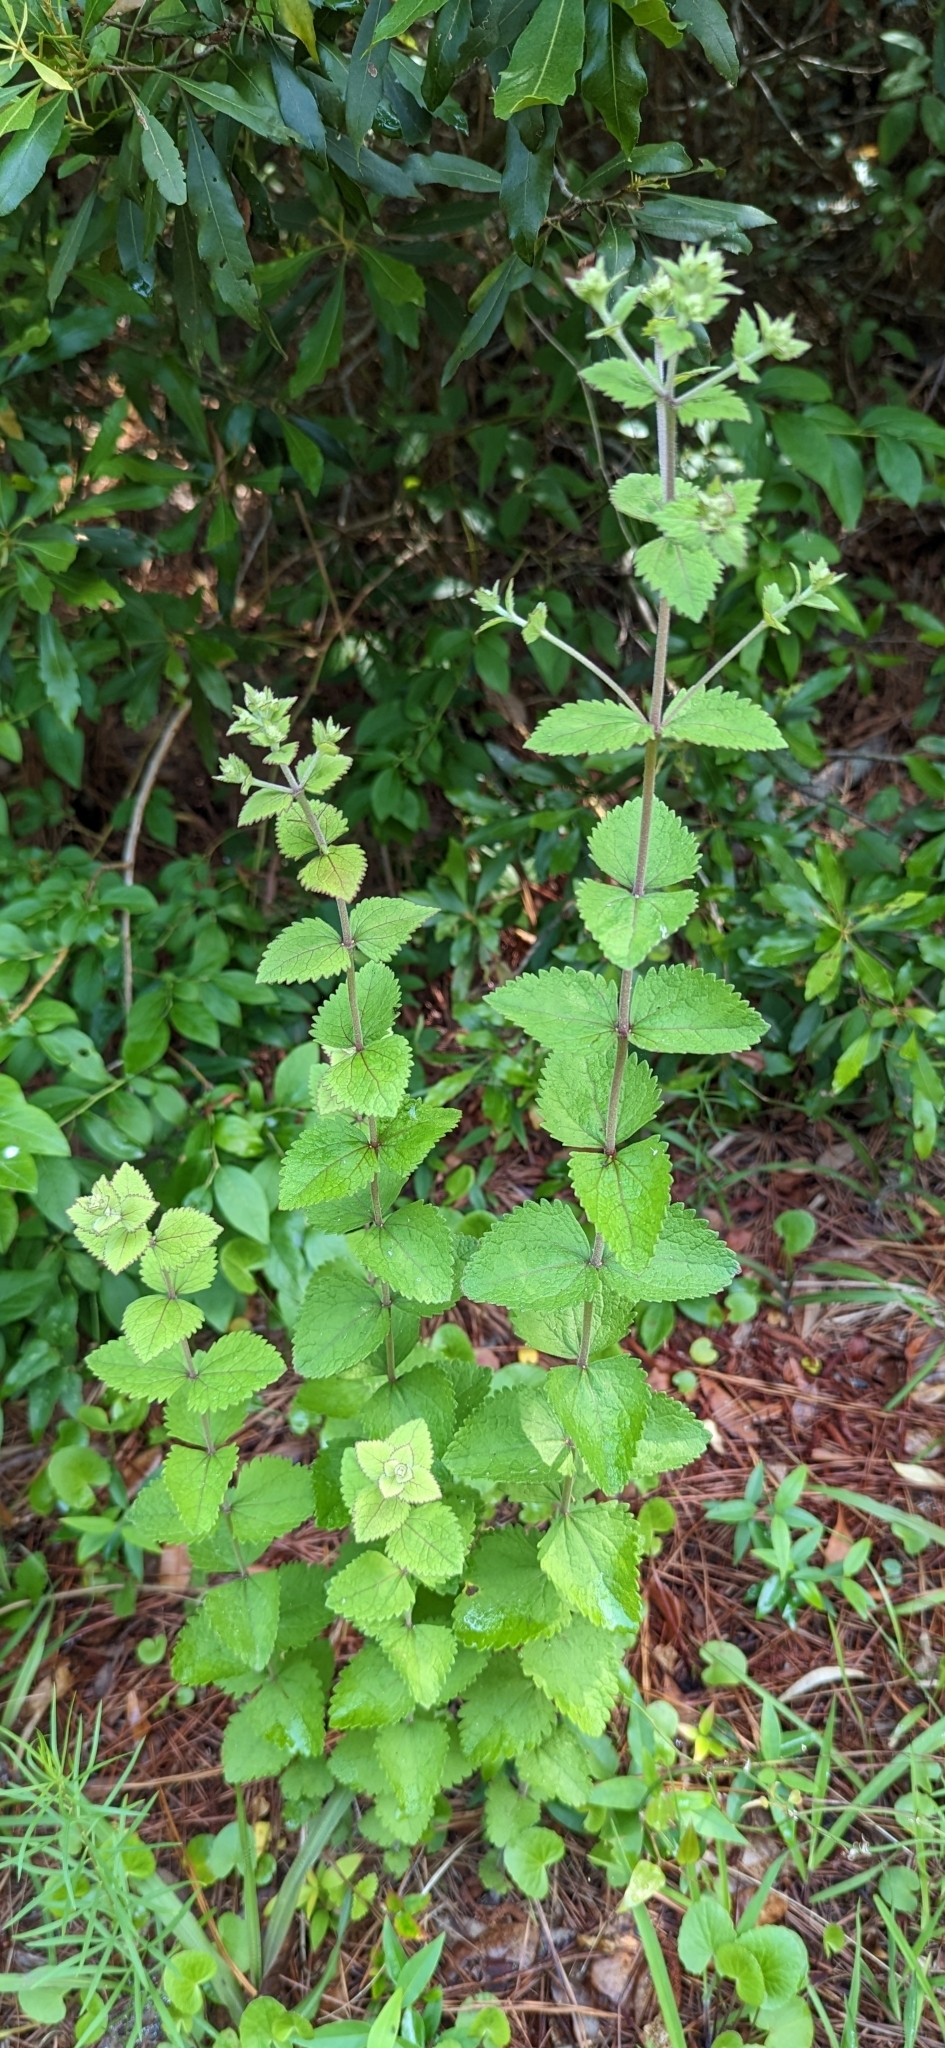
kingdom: Plantae
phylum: Tracheophyta
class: Magnoliopsida
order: Asterales
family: Asteraceae
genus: Eupatorium
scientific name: Eupatorium rotundifolium
